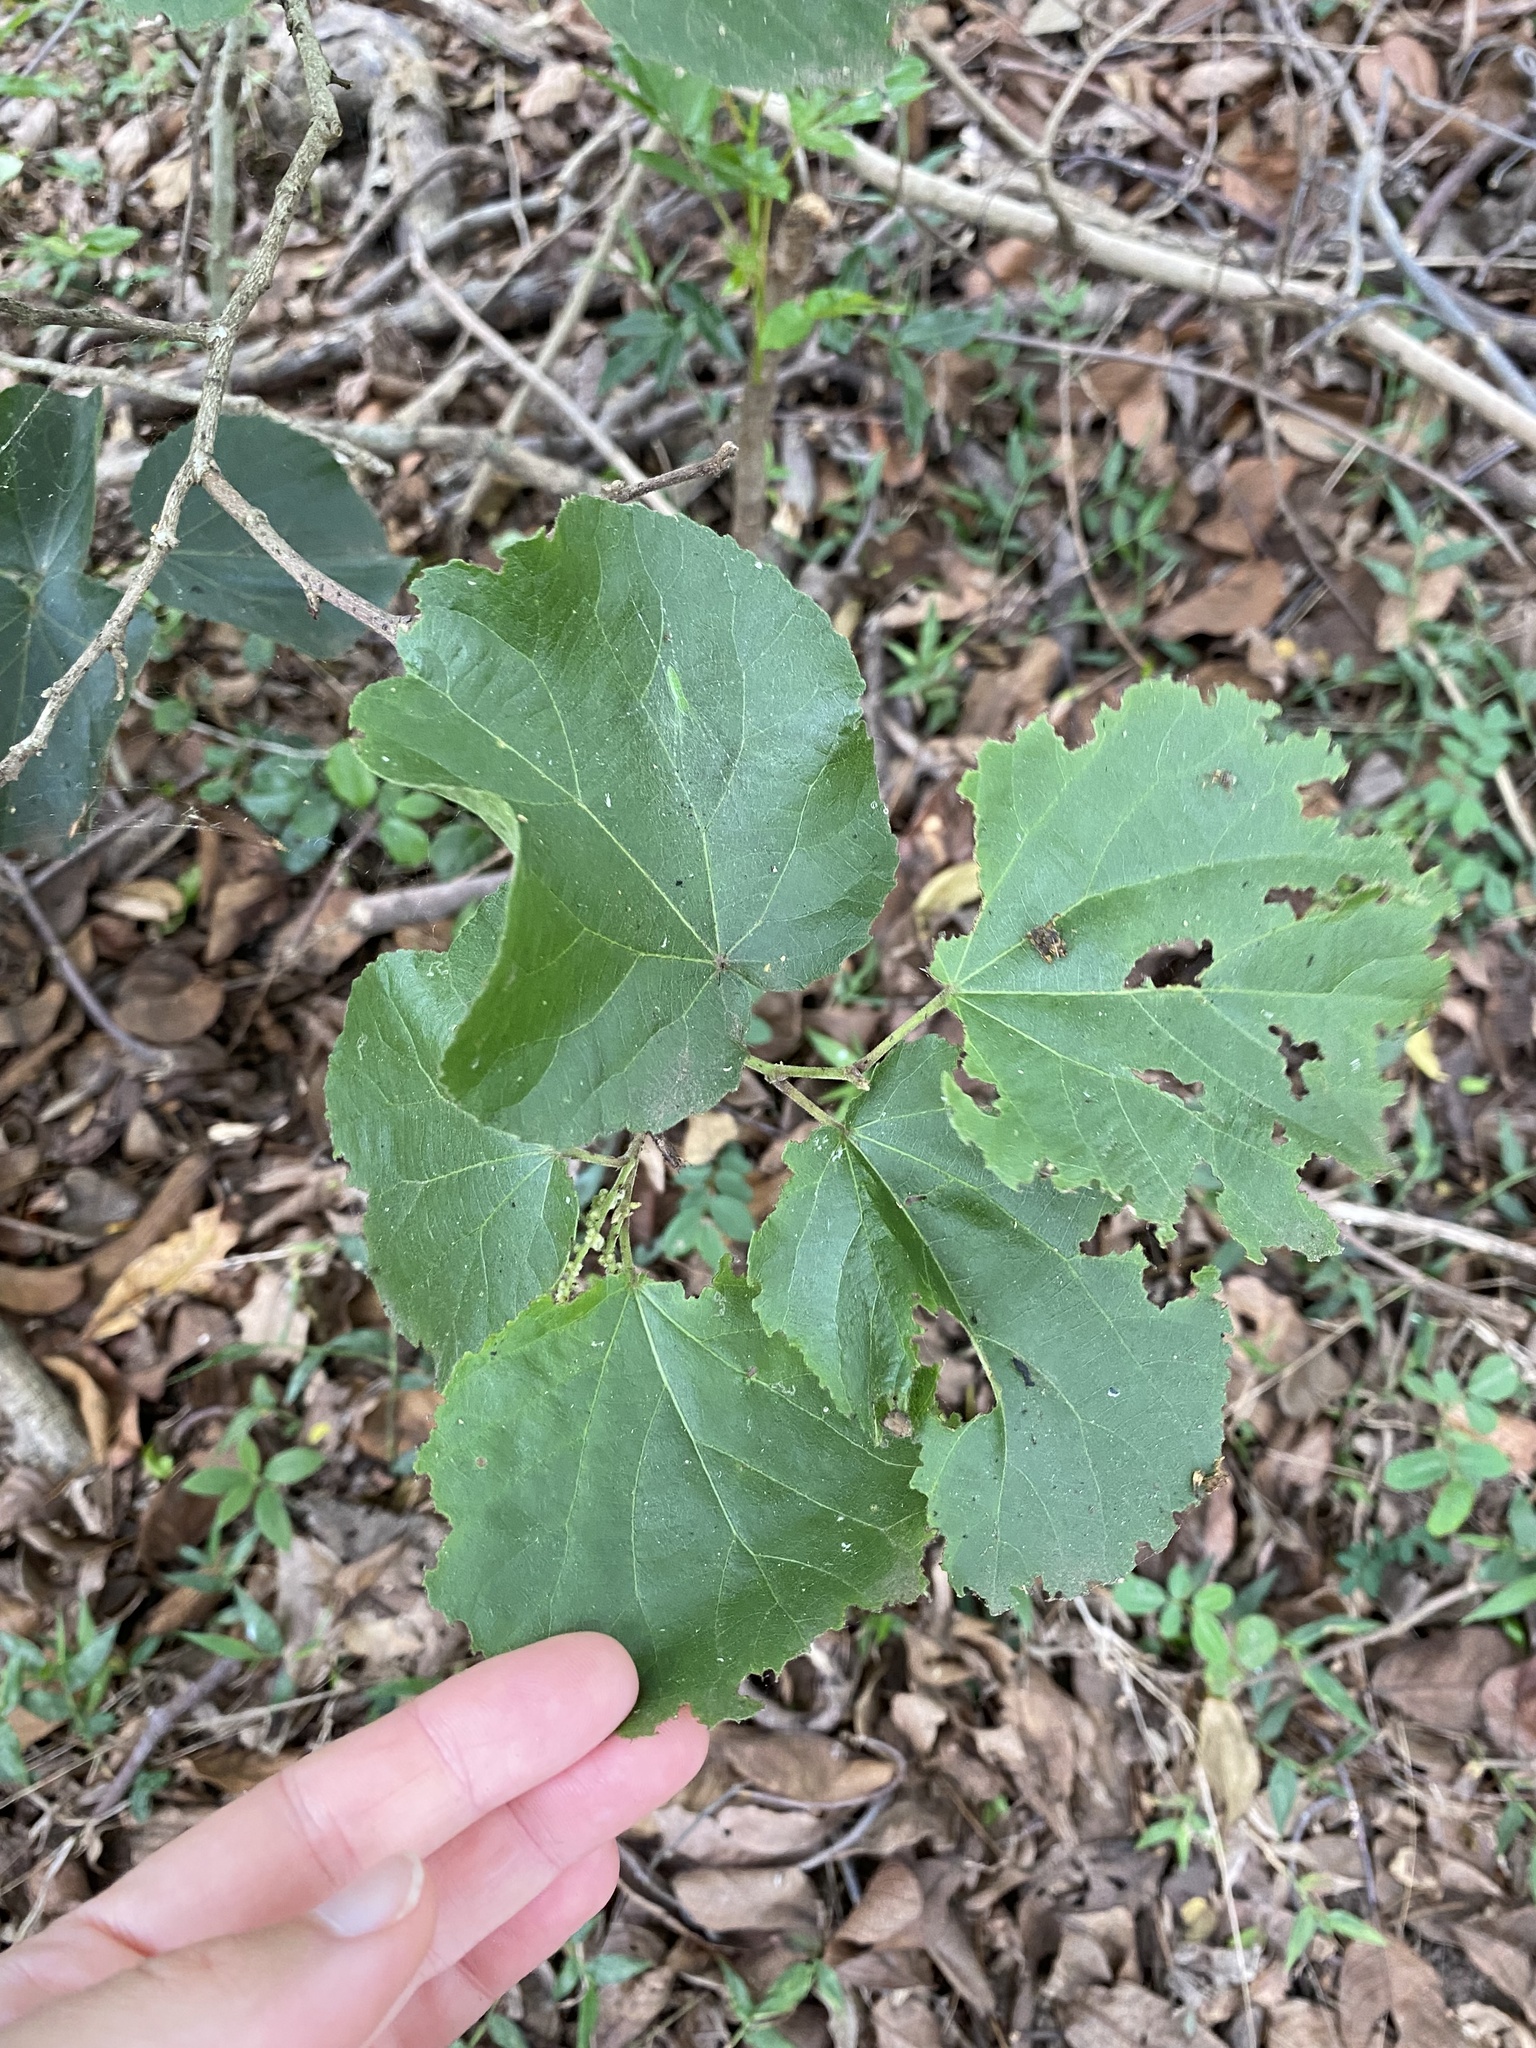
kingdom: Plantae
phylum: Tracheophyta
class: Magnoliopsida
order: Malpighiales
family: Salicaceae
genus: Trimeria
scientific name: Trimeria grandifolia
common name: Wild mulberry
